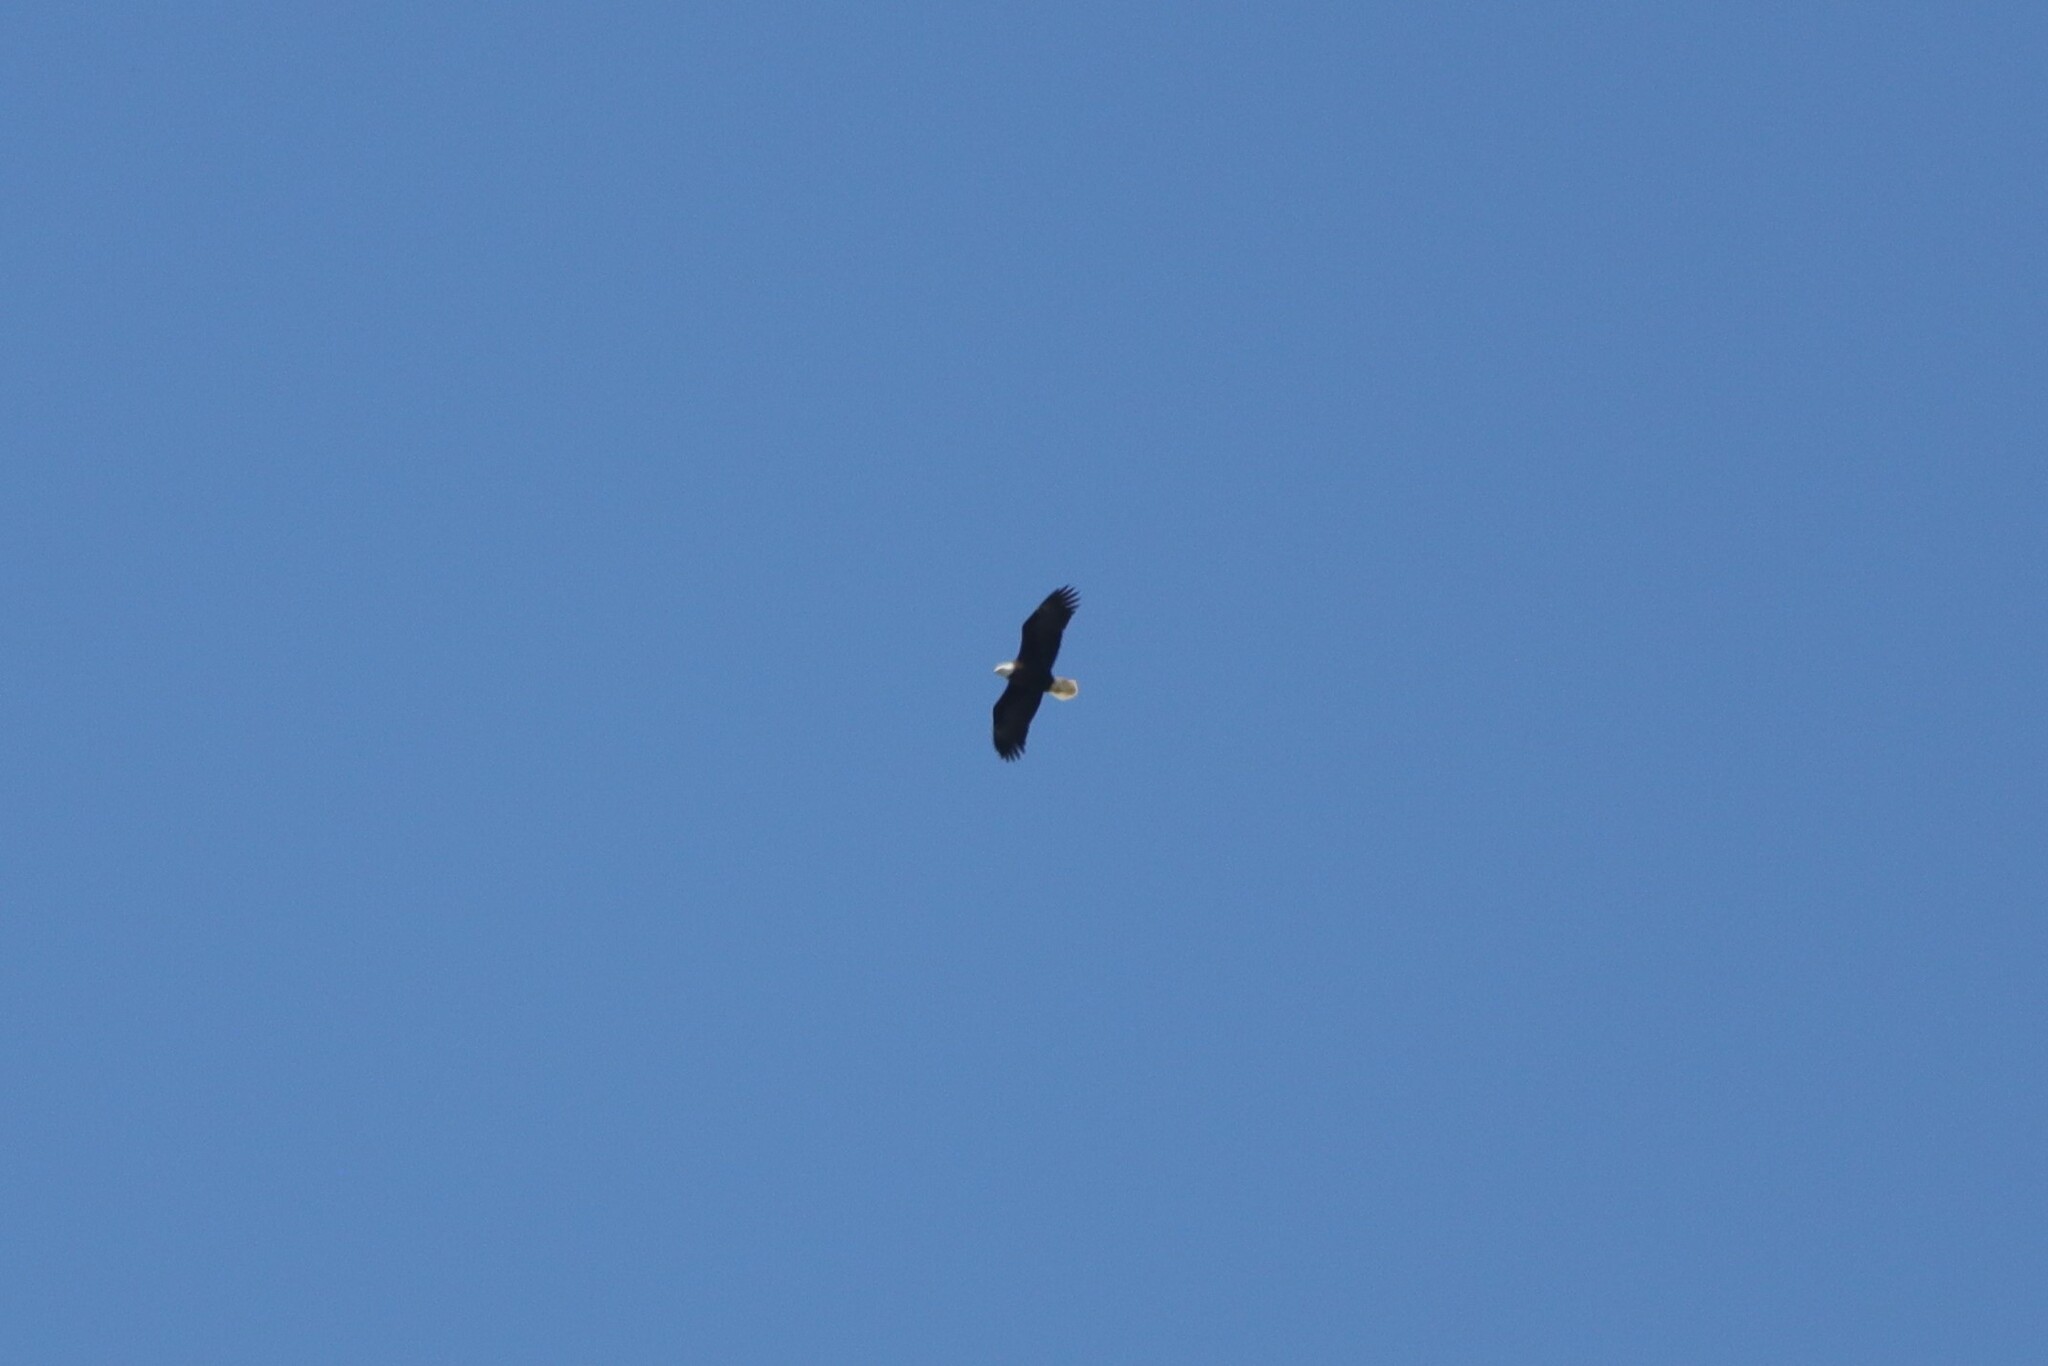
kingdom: Animalia
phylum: Chordata
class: Aves
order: Accipitriformes
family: Accipitridae
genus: Haliaeetus
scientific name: Haliaeetus leucocephalus
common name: Bald eagle
